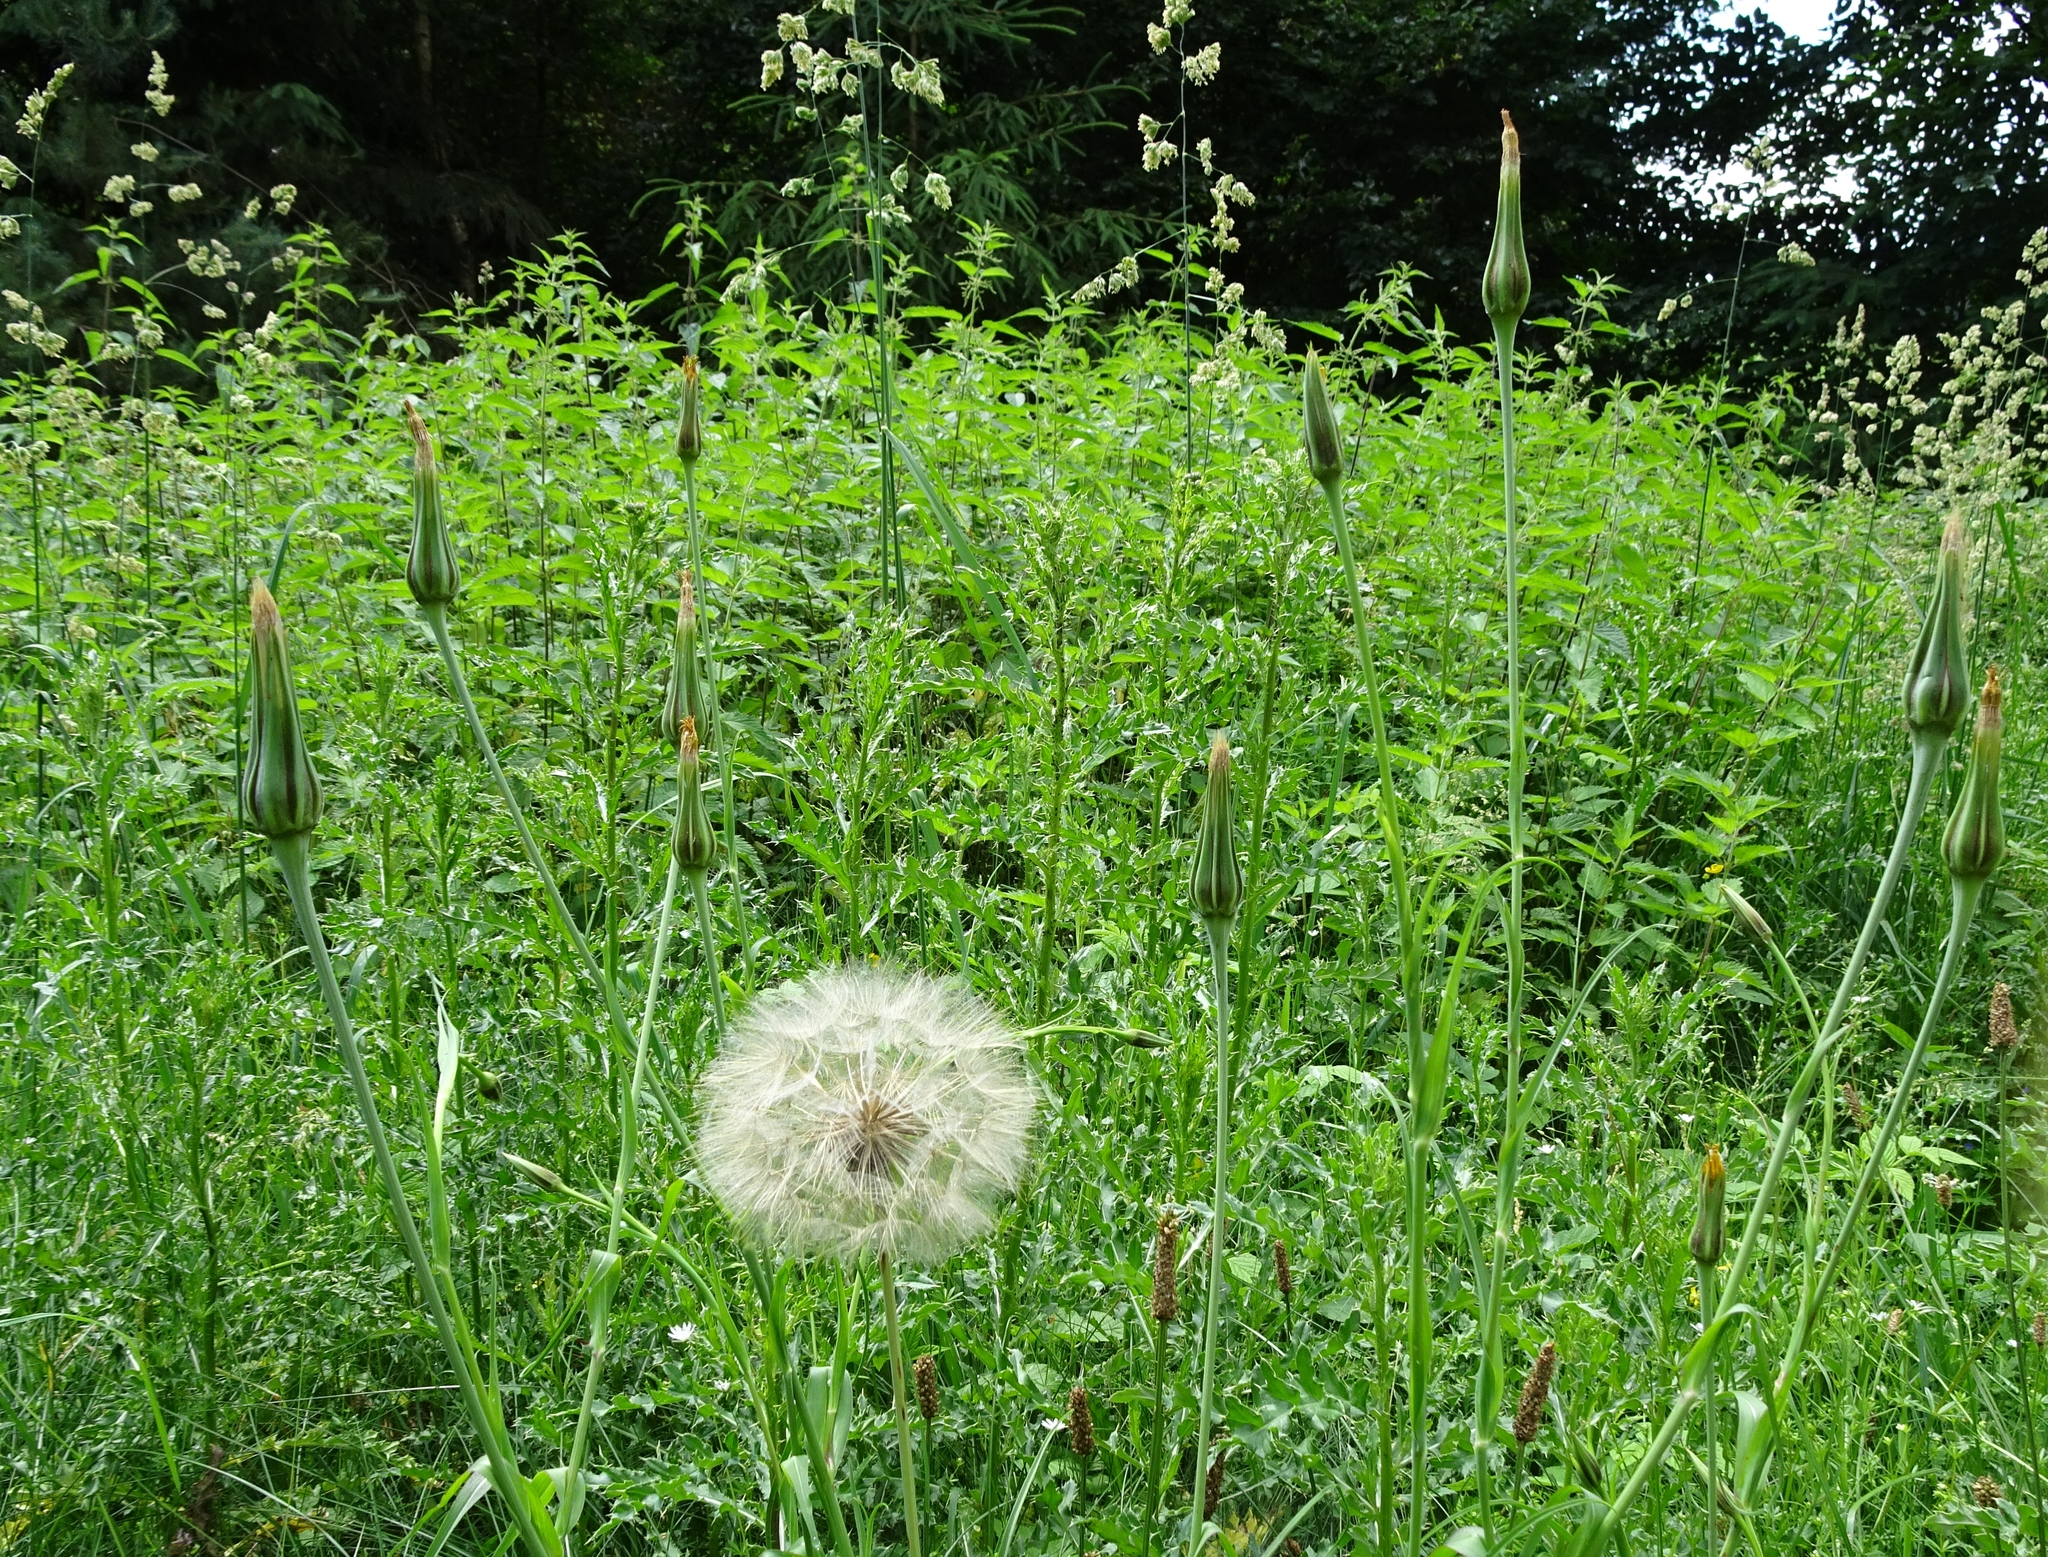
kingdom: Plantae
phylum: Tracheophyta
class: Magnoliopsida
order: Asterales
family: Asteraceae
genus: Tragopogon
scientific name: Tragopogon pratensis
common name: Goat's-beard
